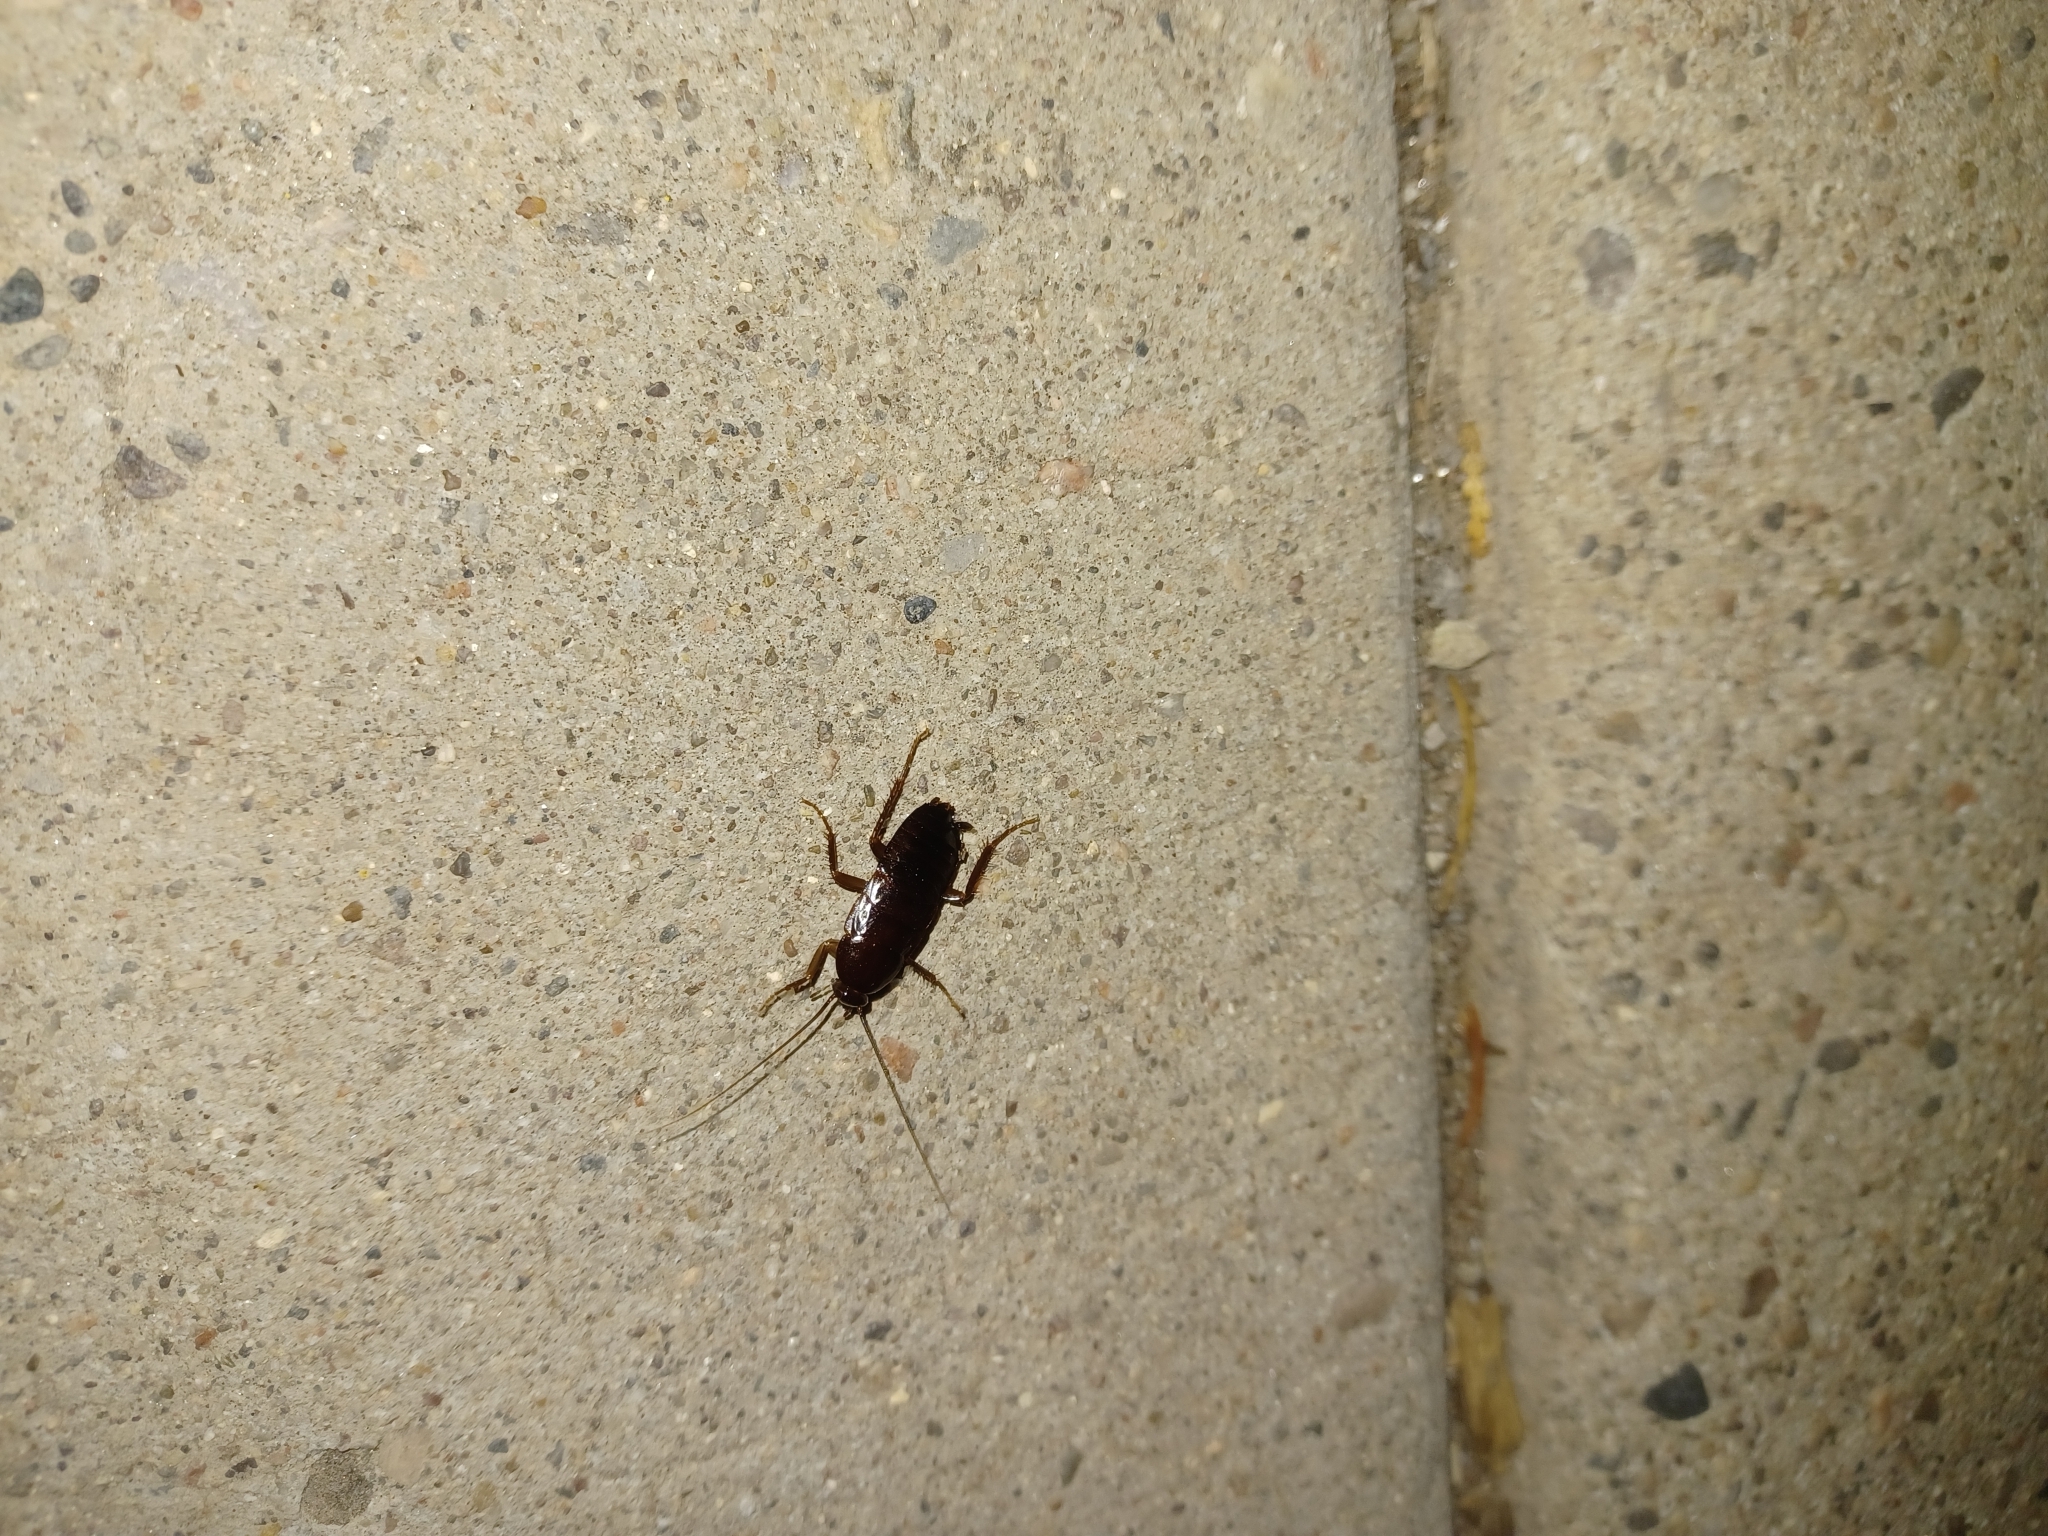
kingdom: Animalia
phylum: Arthropoda
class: Insecta
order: Blattodea
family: Blattidae
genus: Blatta
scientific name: Blatta orientalis
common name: Oriental cockroach
